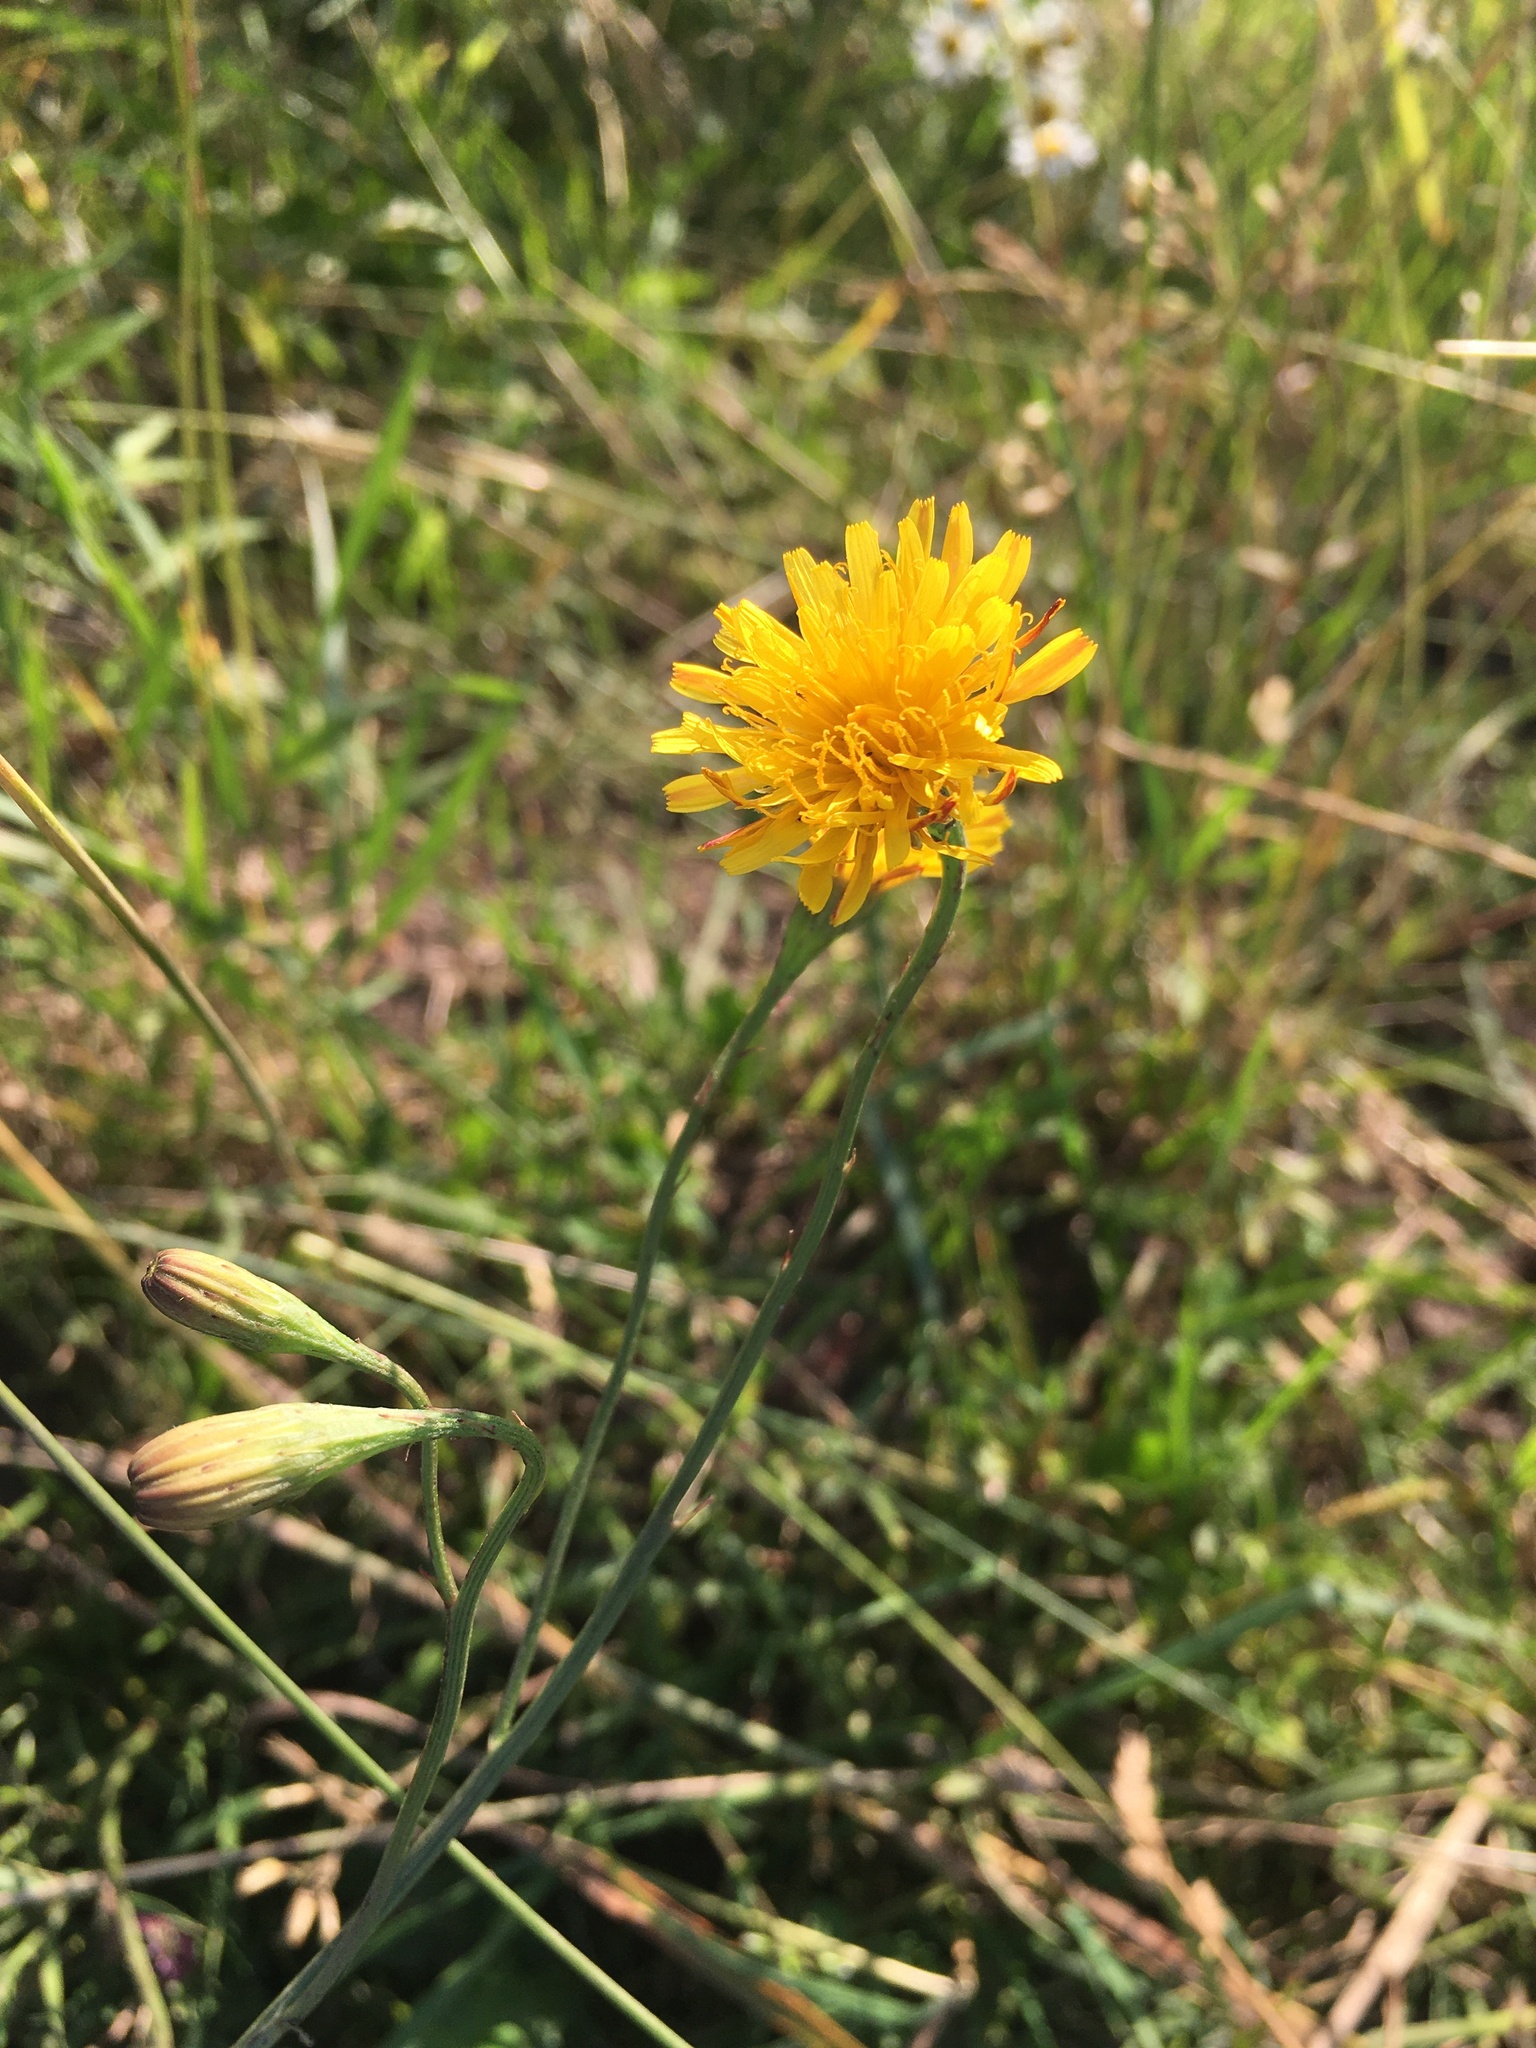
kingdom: Plantae
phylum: Tracheophyta
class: Magnoliopsida
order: Asterales
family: Asteraceae
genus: Scorzoneroides
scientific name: Scorzoneroides autumnalis
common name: Autumn hawkbit
